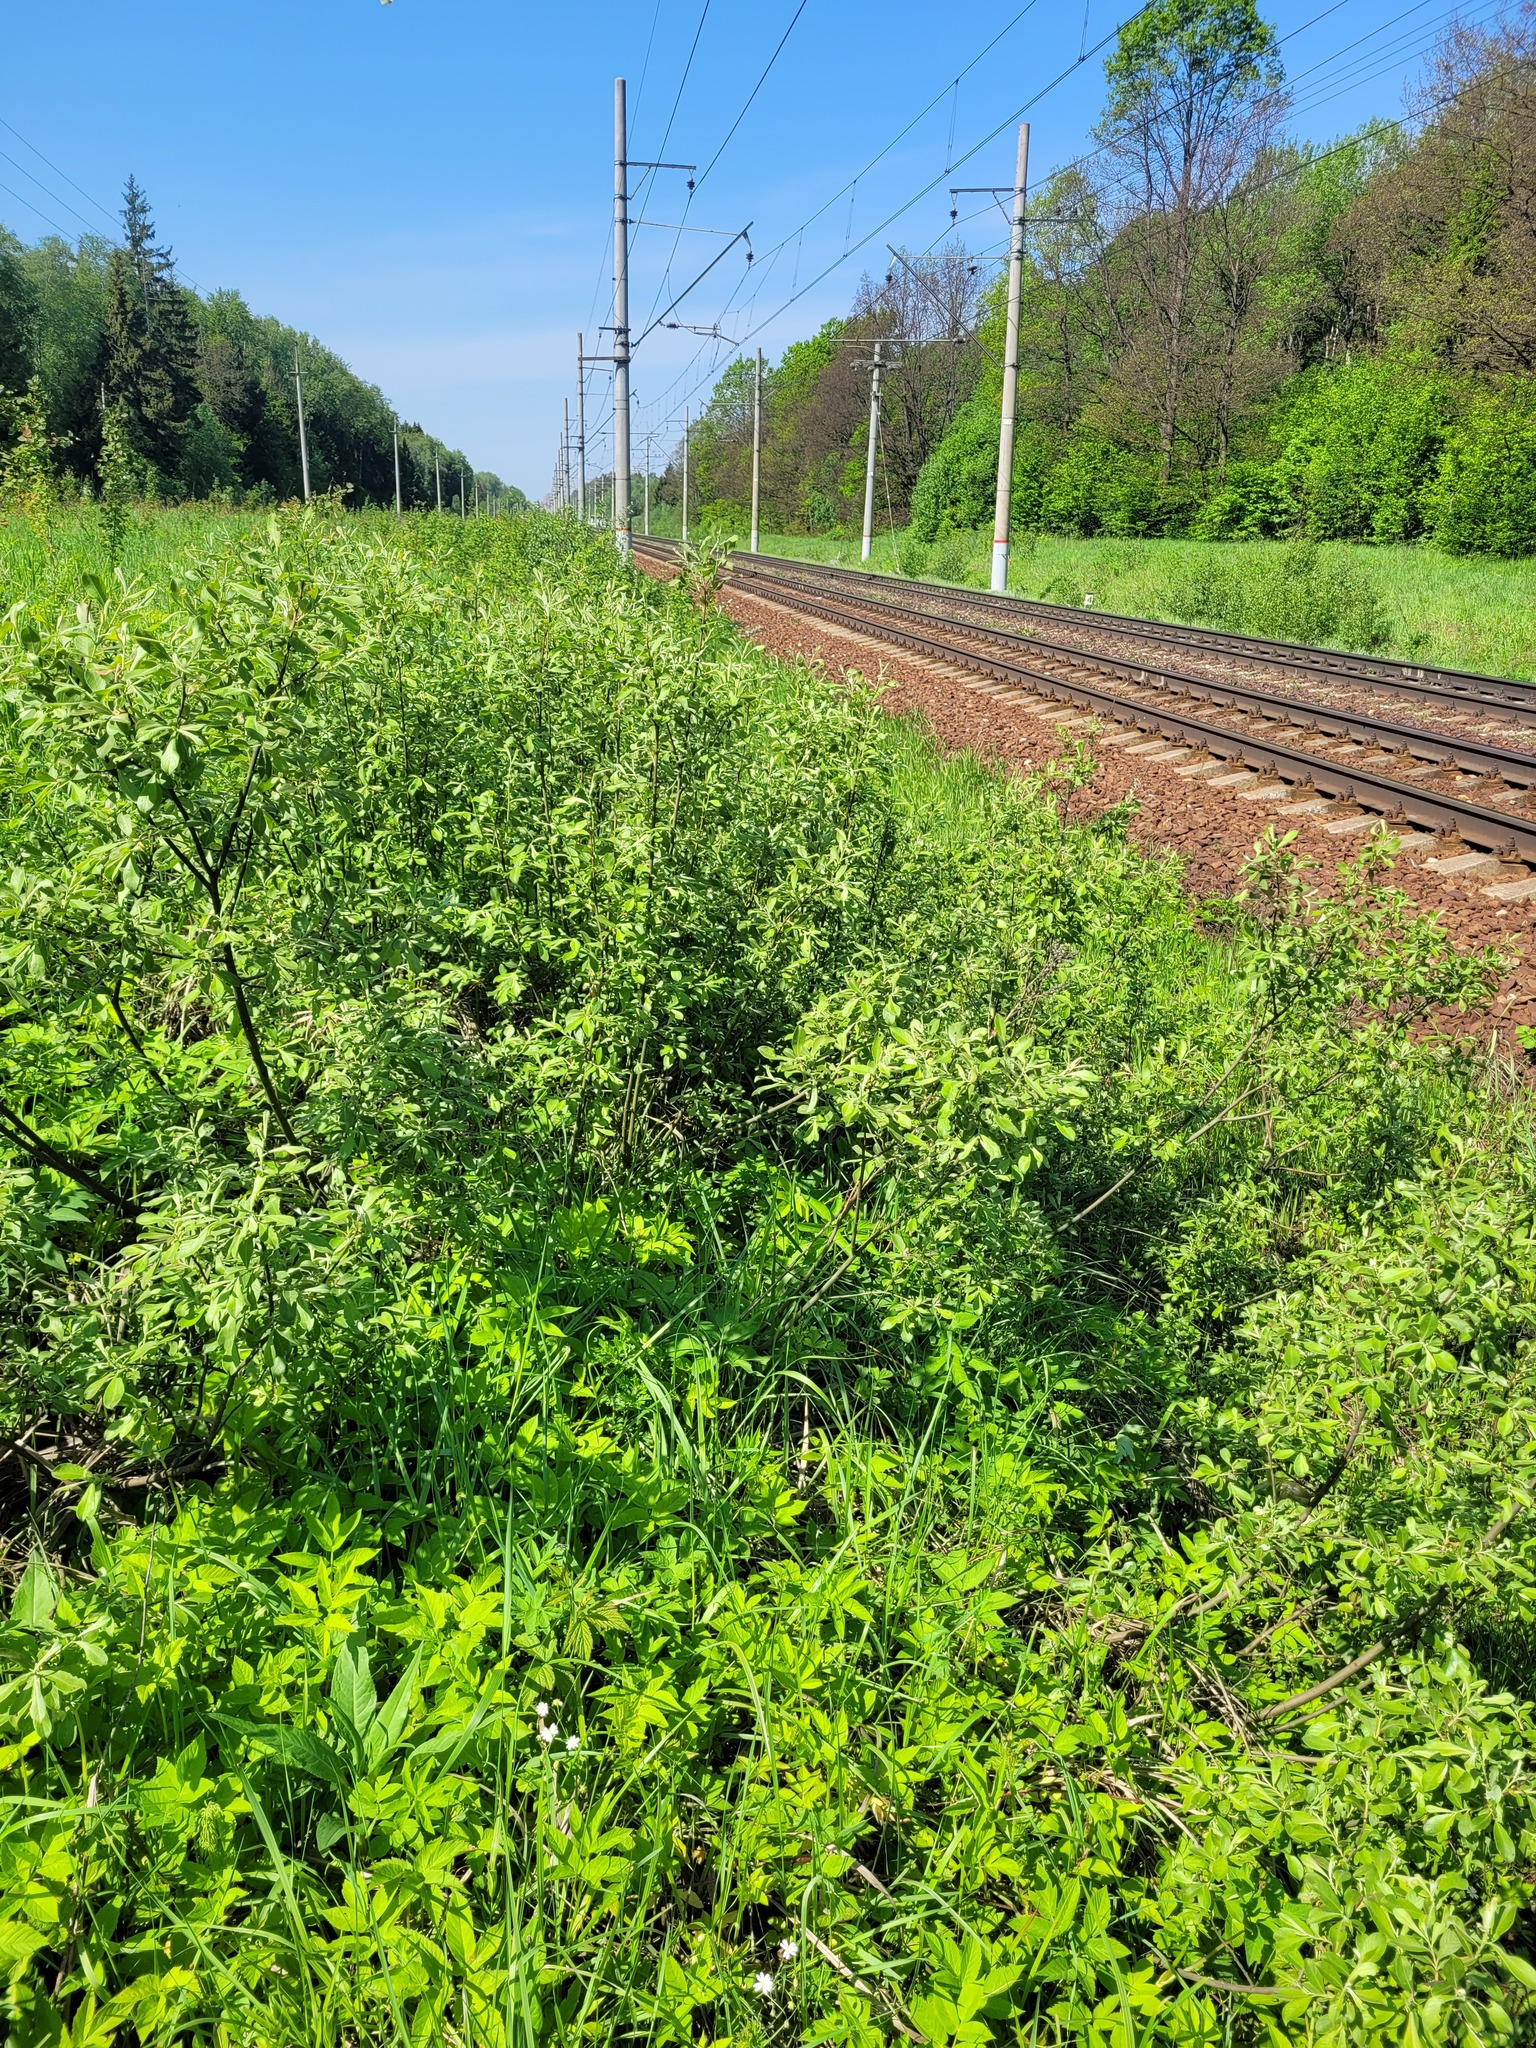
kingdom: Plantae
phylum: Tracheophyta
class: Magnoliopsida
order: Malpighiales
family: Salicaceae
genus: Salix
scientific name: Salix cinerea
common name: Common sallow
